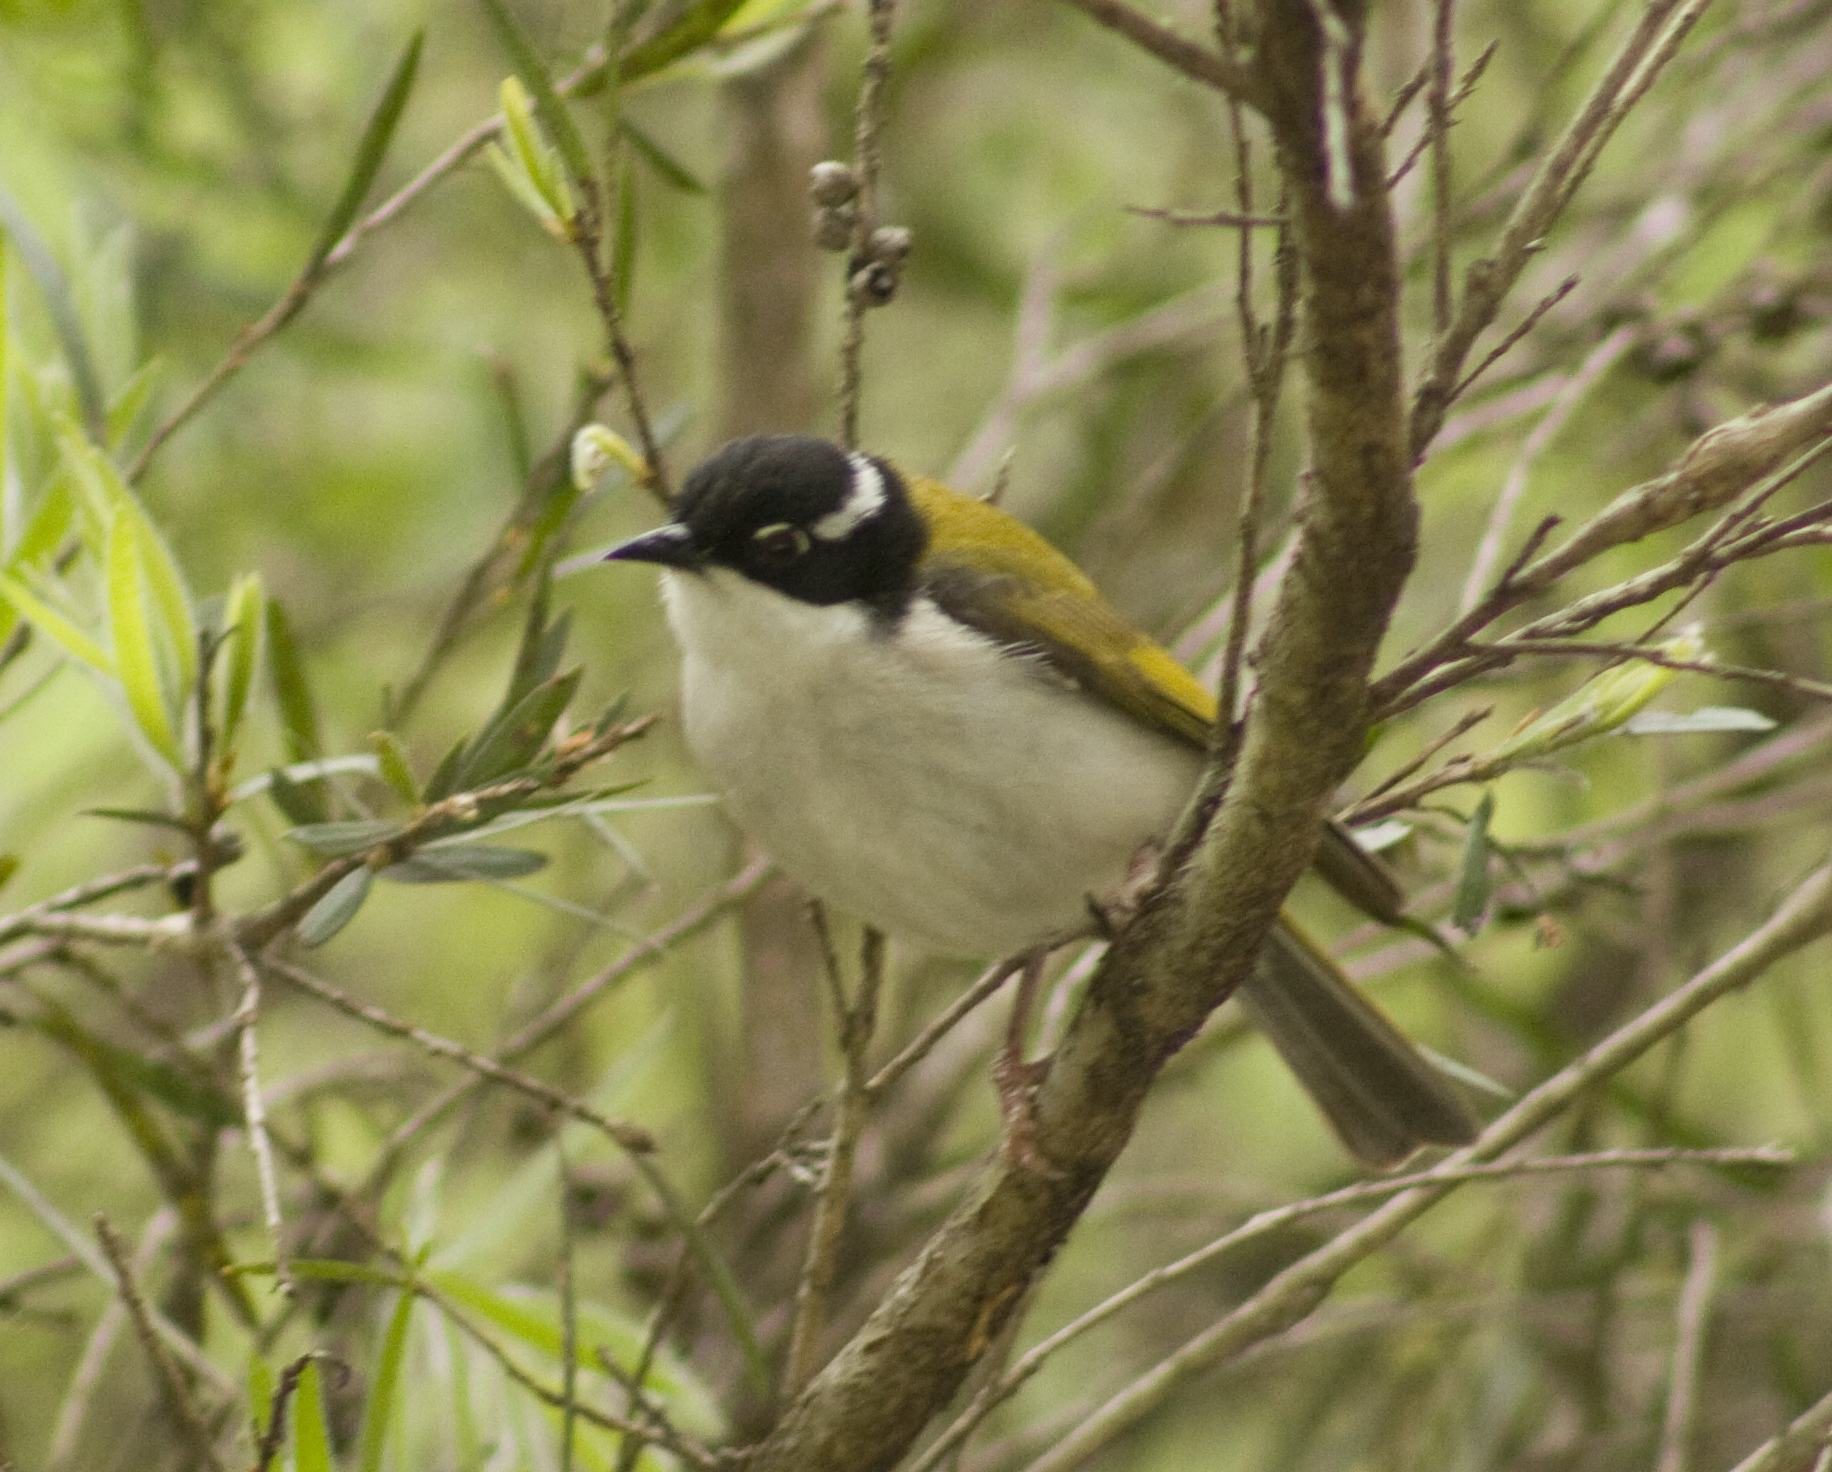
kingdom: Animalia
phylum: Chordata
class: Aves
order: Passeriformes
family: Meliphagidae
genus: Melithreptus
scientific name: Melithreptus albogularis
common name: White-throated honeyeater
